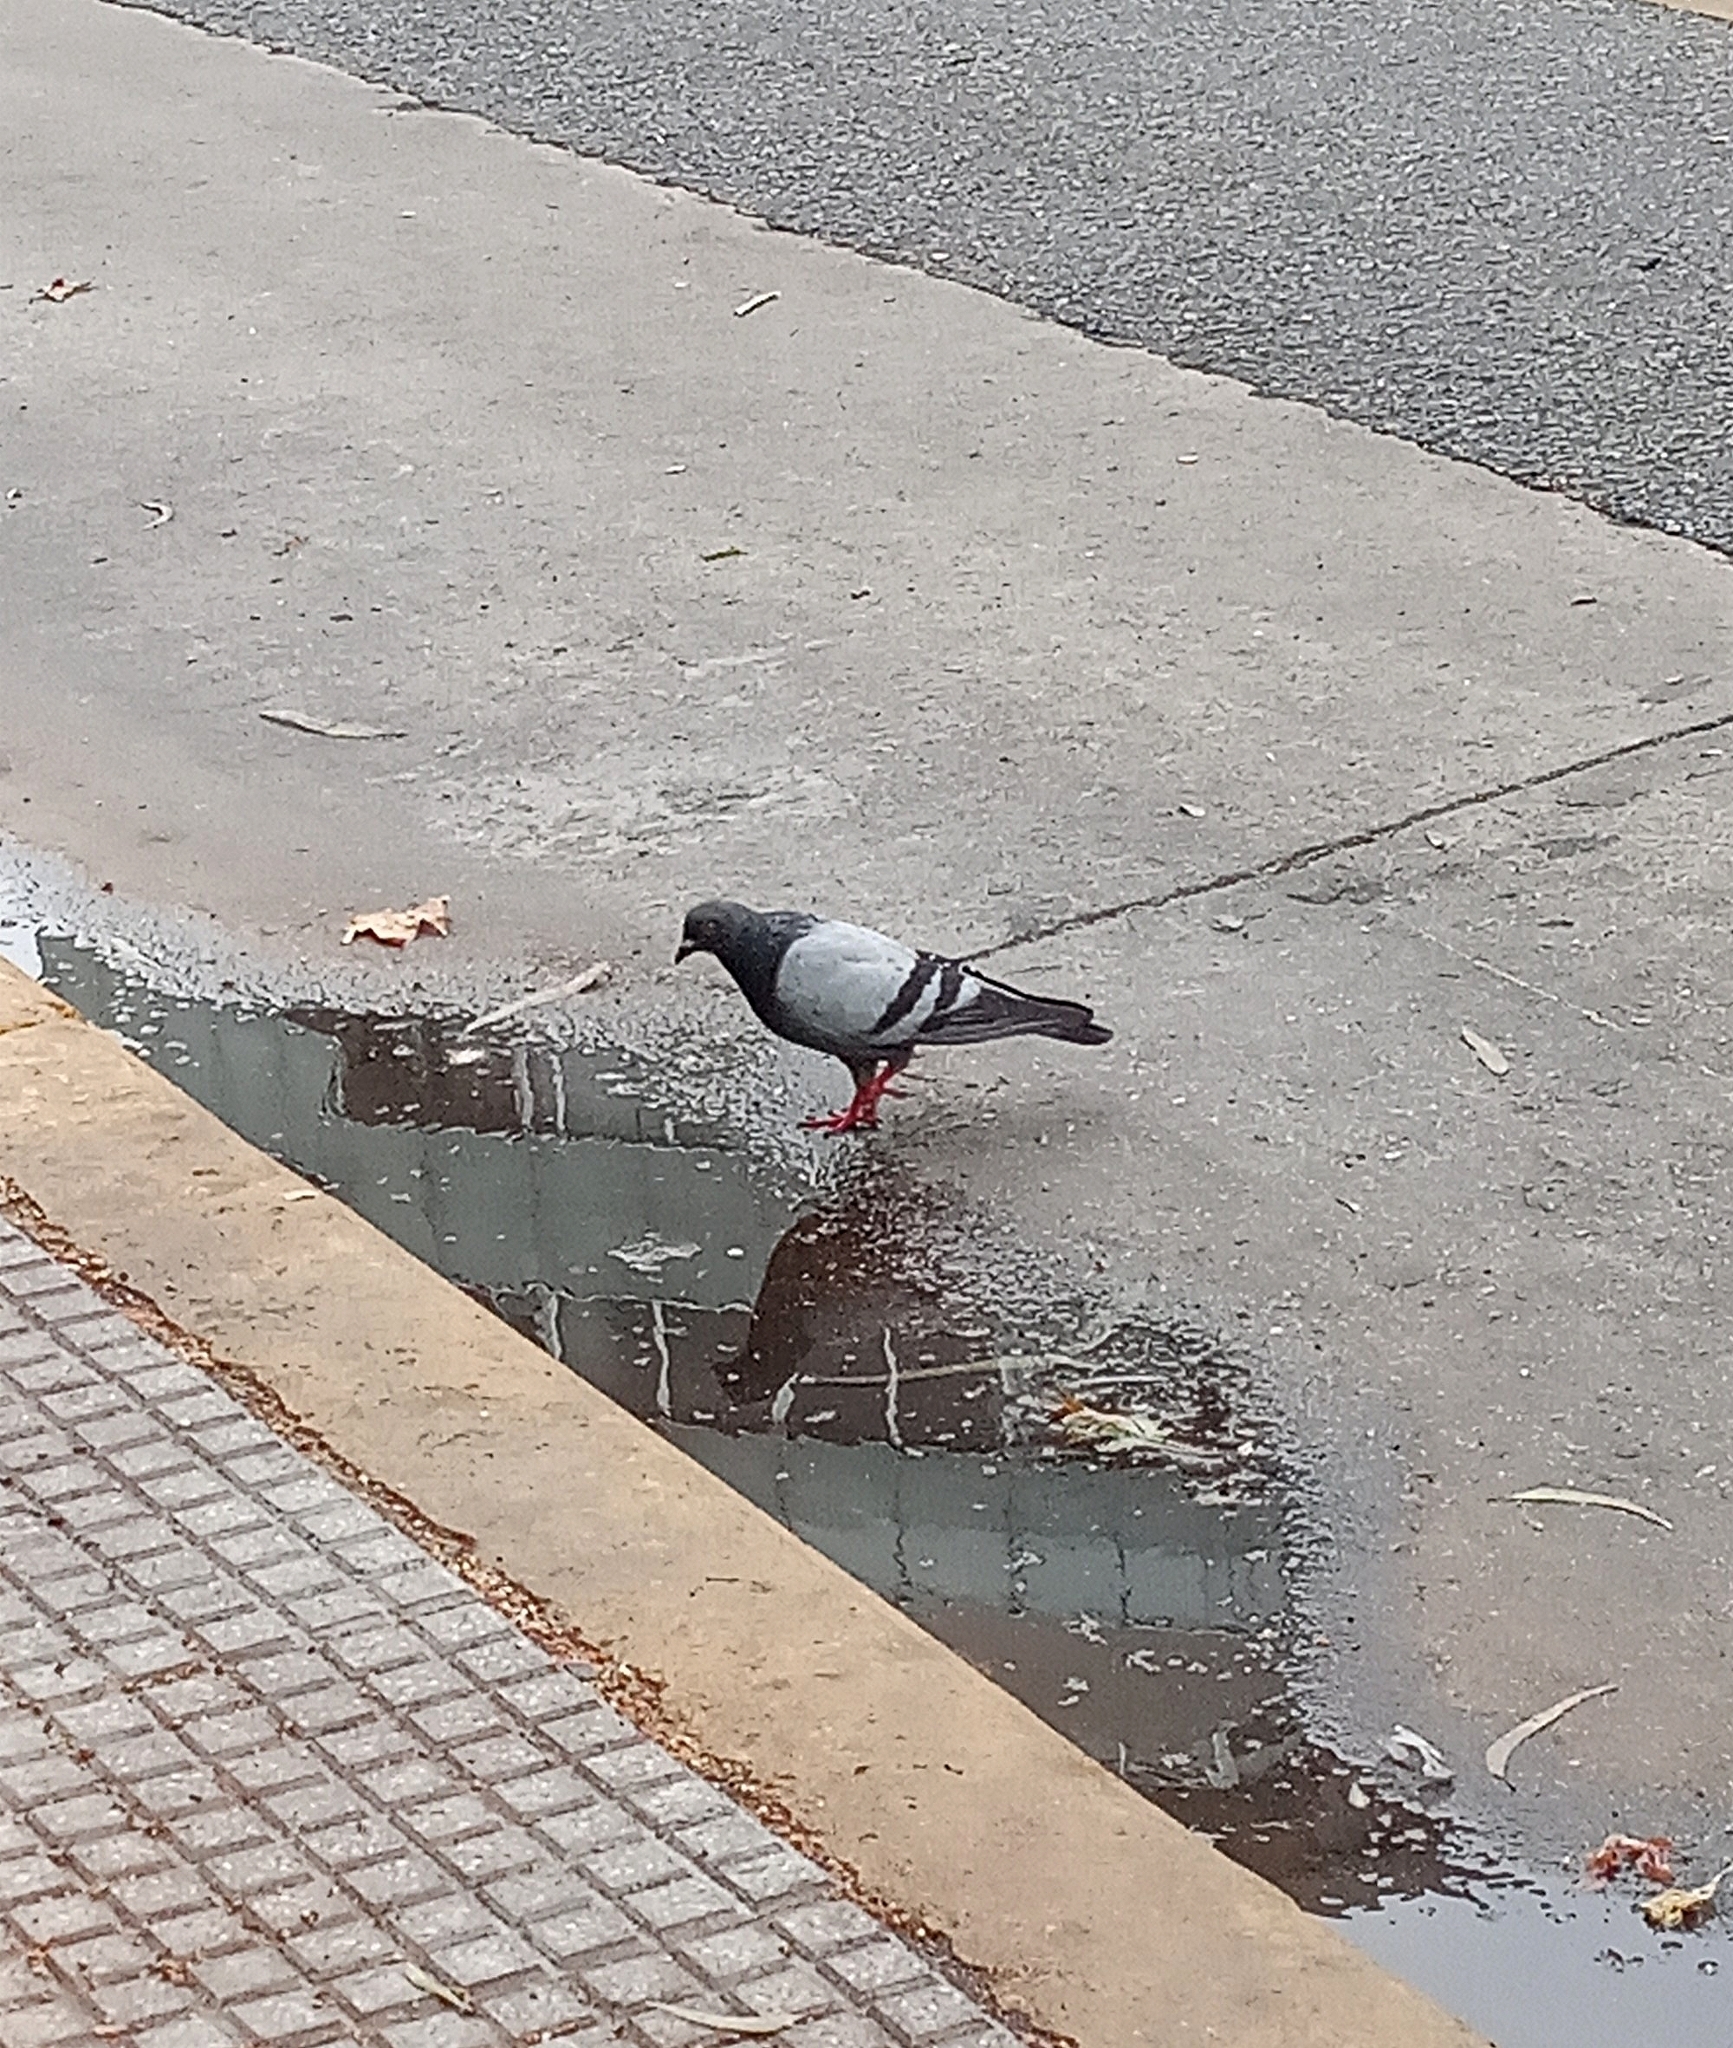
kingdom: Animalia
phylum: Chordata
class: Aves
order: Columbiformes
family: Columbidae
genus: Columba
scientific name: Columba livia
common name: Rock pigeon
